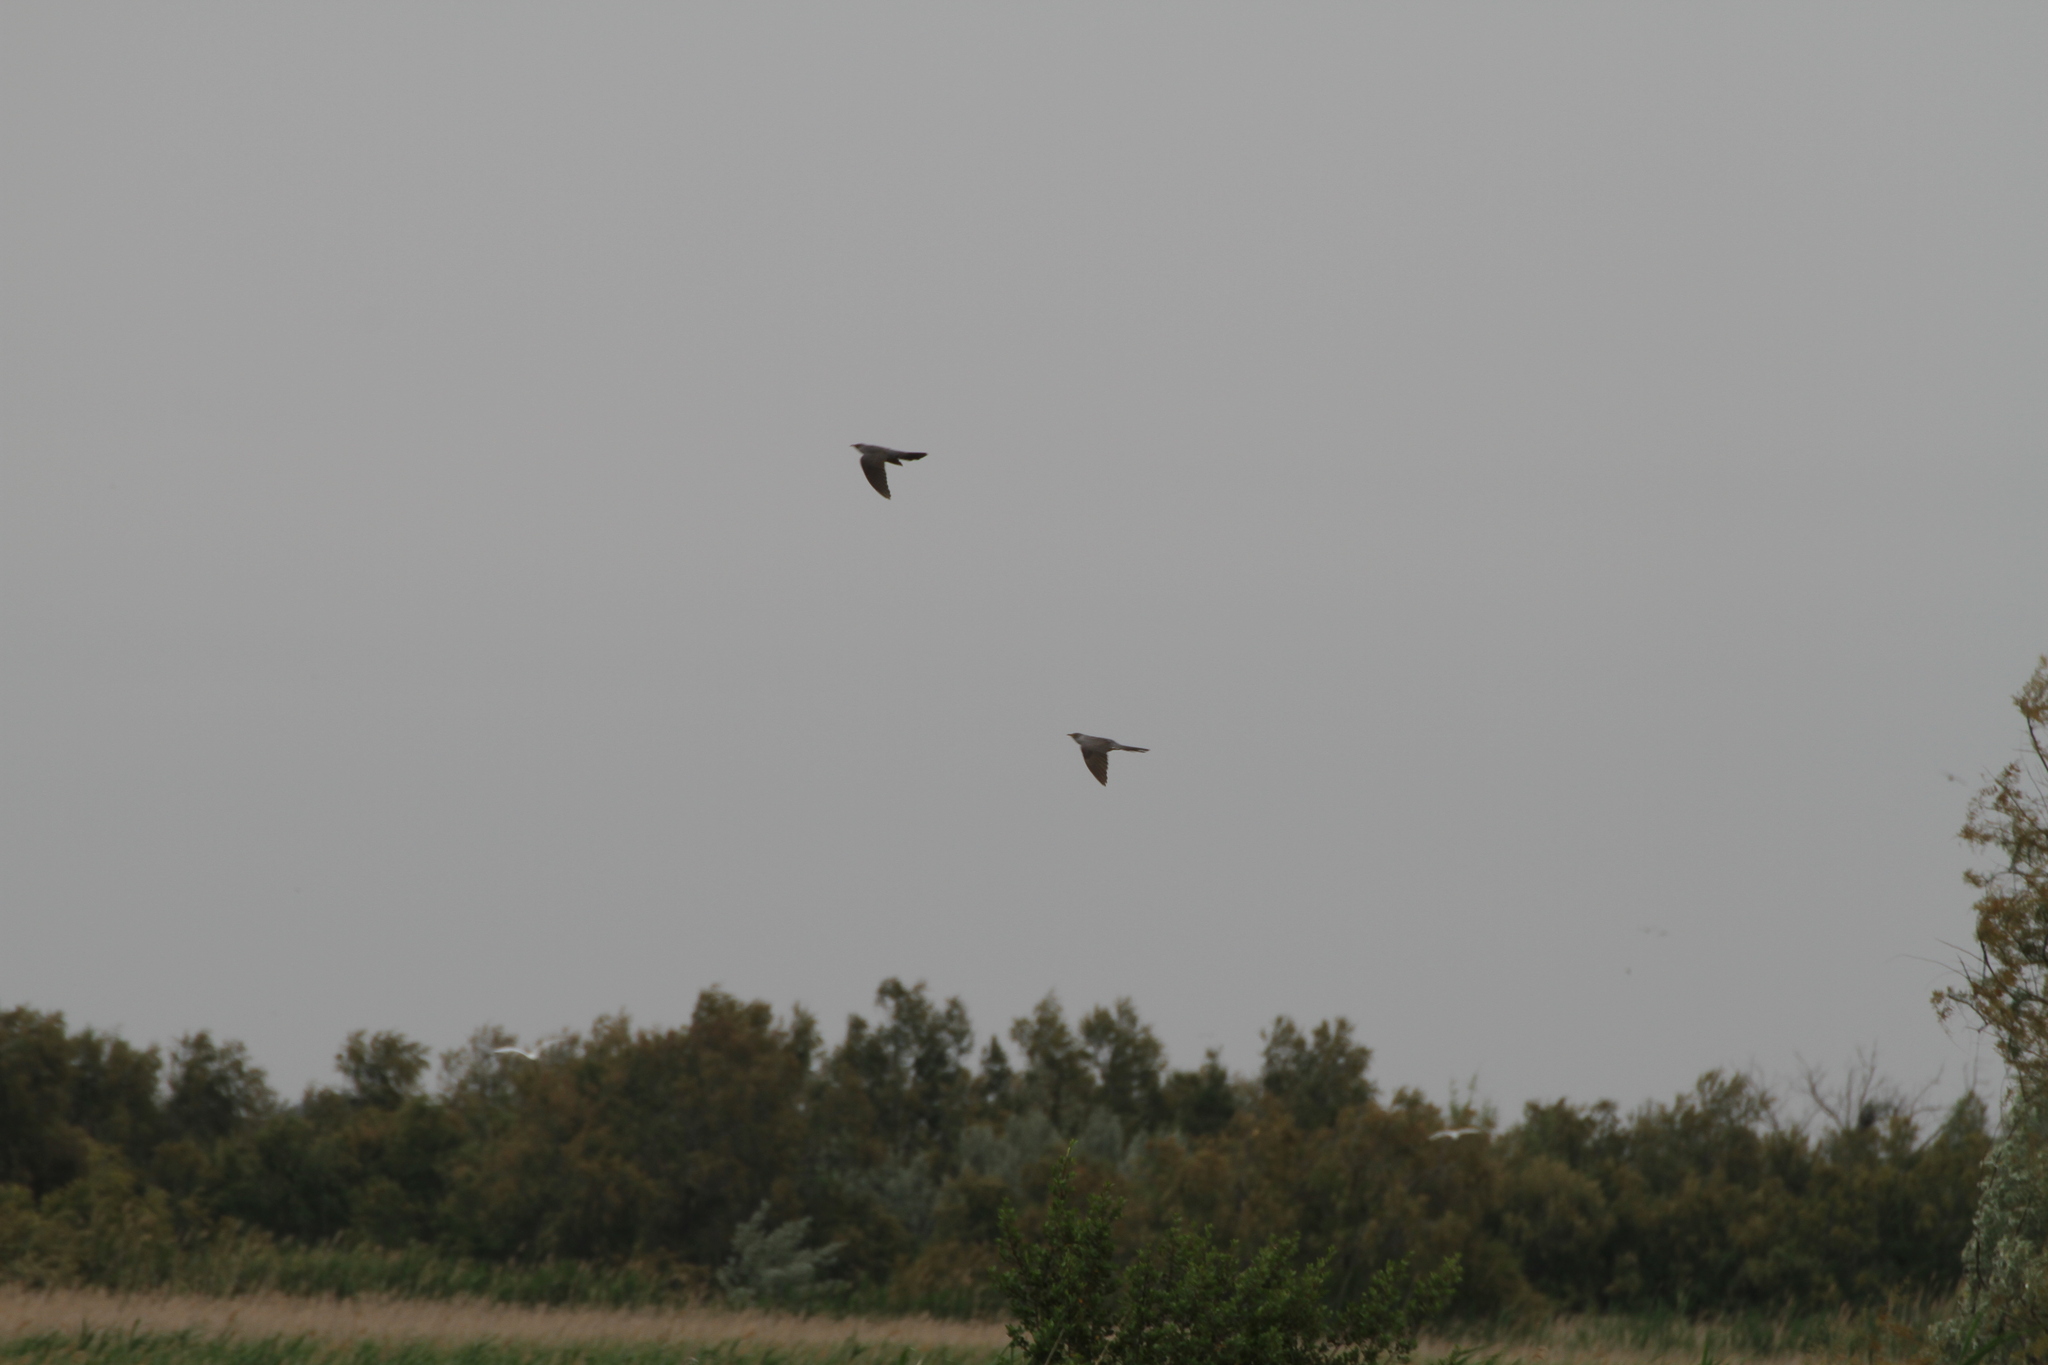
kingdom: Animalia
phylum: Chordata
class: Aves
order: Cuculiformes
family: Cuculidae
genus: Cuculus
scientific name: Cuculus canorus
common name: Common cuckoo
